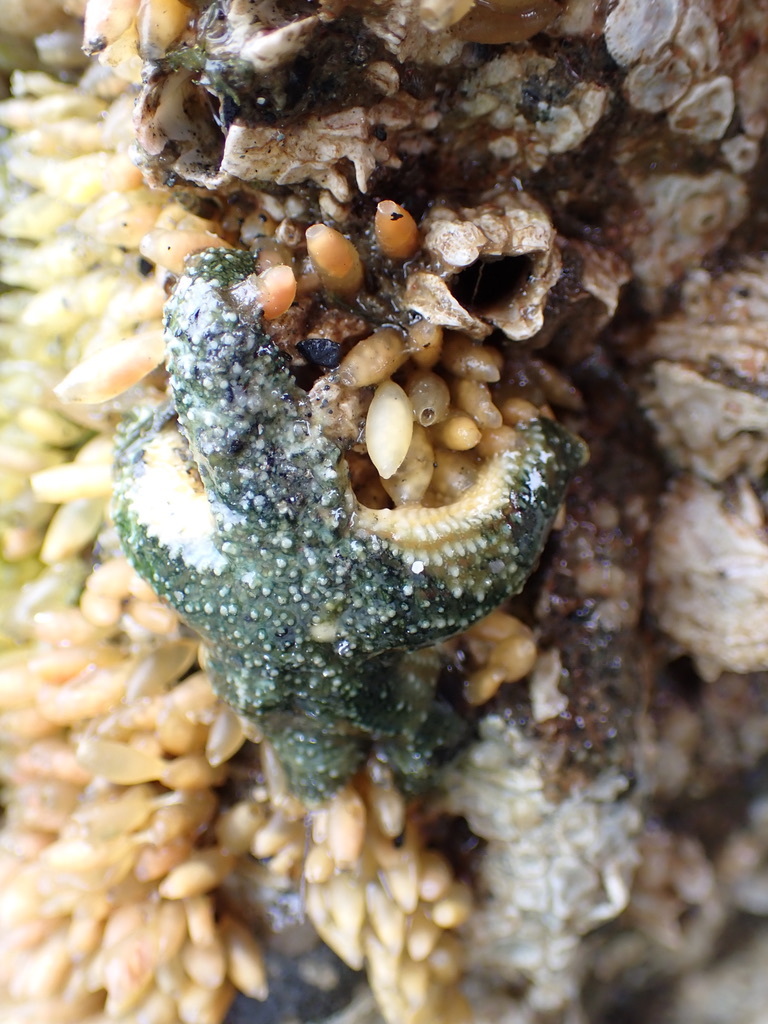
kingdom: Animalia
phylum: Echinodermata
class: Asteroidea
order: Forcipulatida
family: Asteriidae
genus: Evasterias
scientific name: Evasterias troschelii
